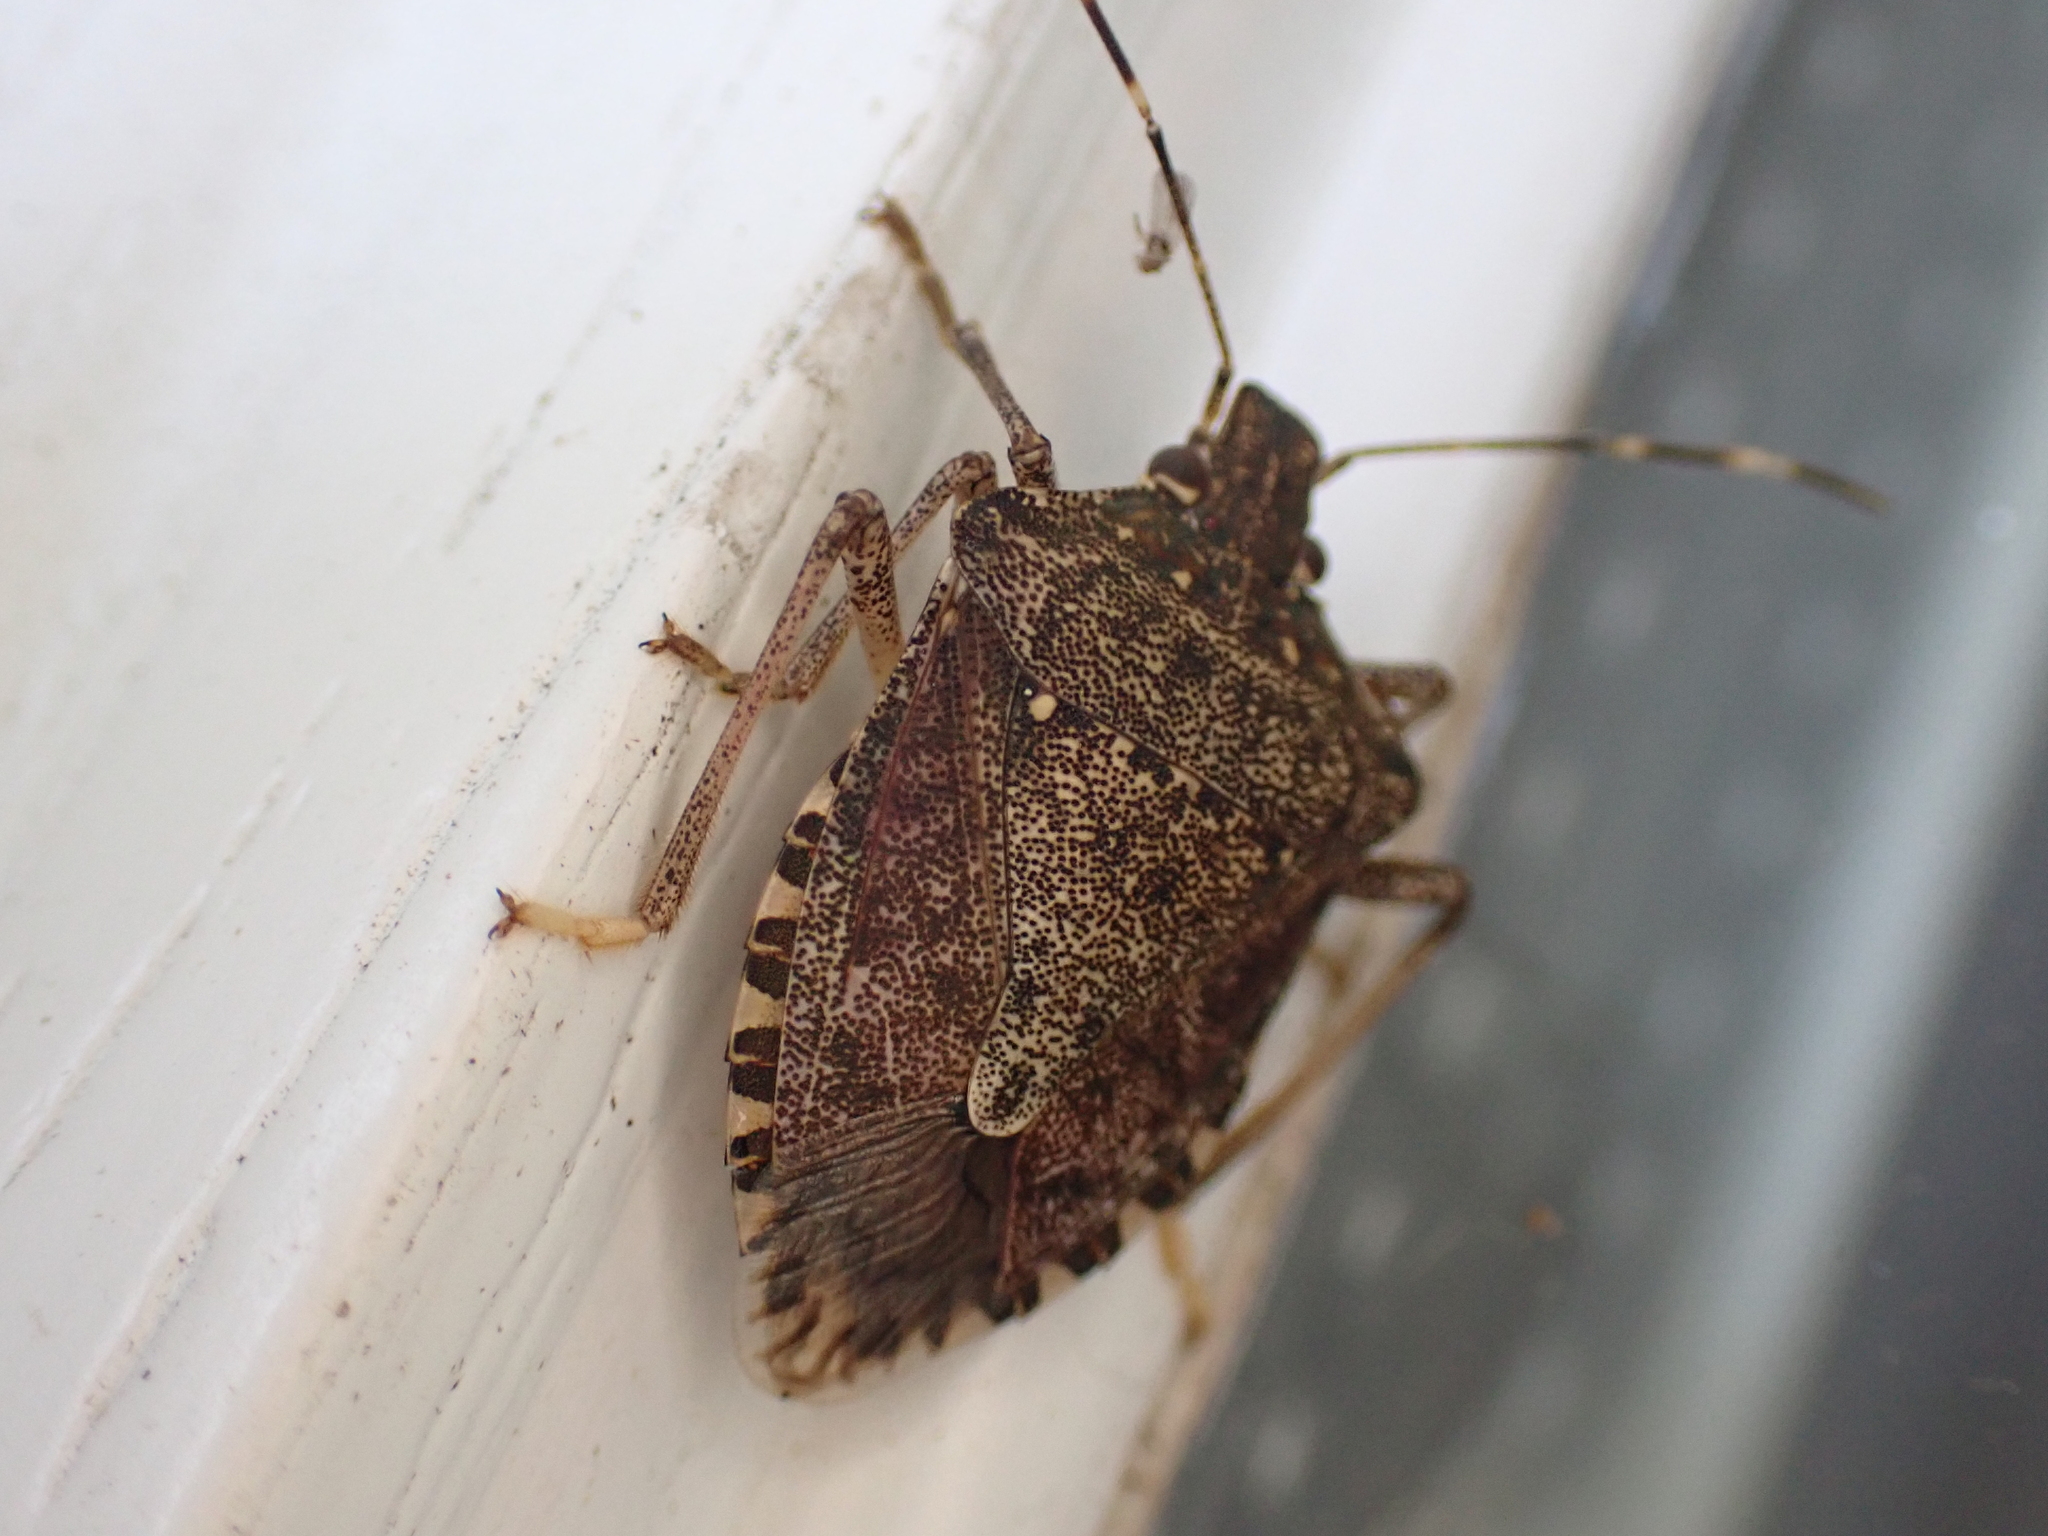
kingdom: Animalia
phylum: Arthropoda
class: Insecta
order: Hemiptera
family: Pentatomidae
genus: Halyomorpha
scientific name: Halyomorpha halys
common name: Brown marmorated stink bug
